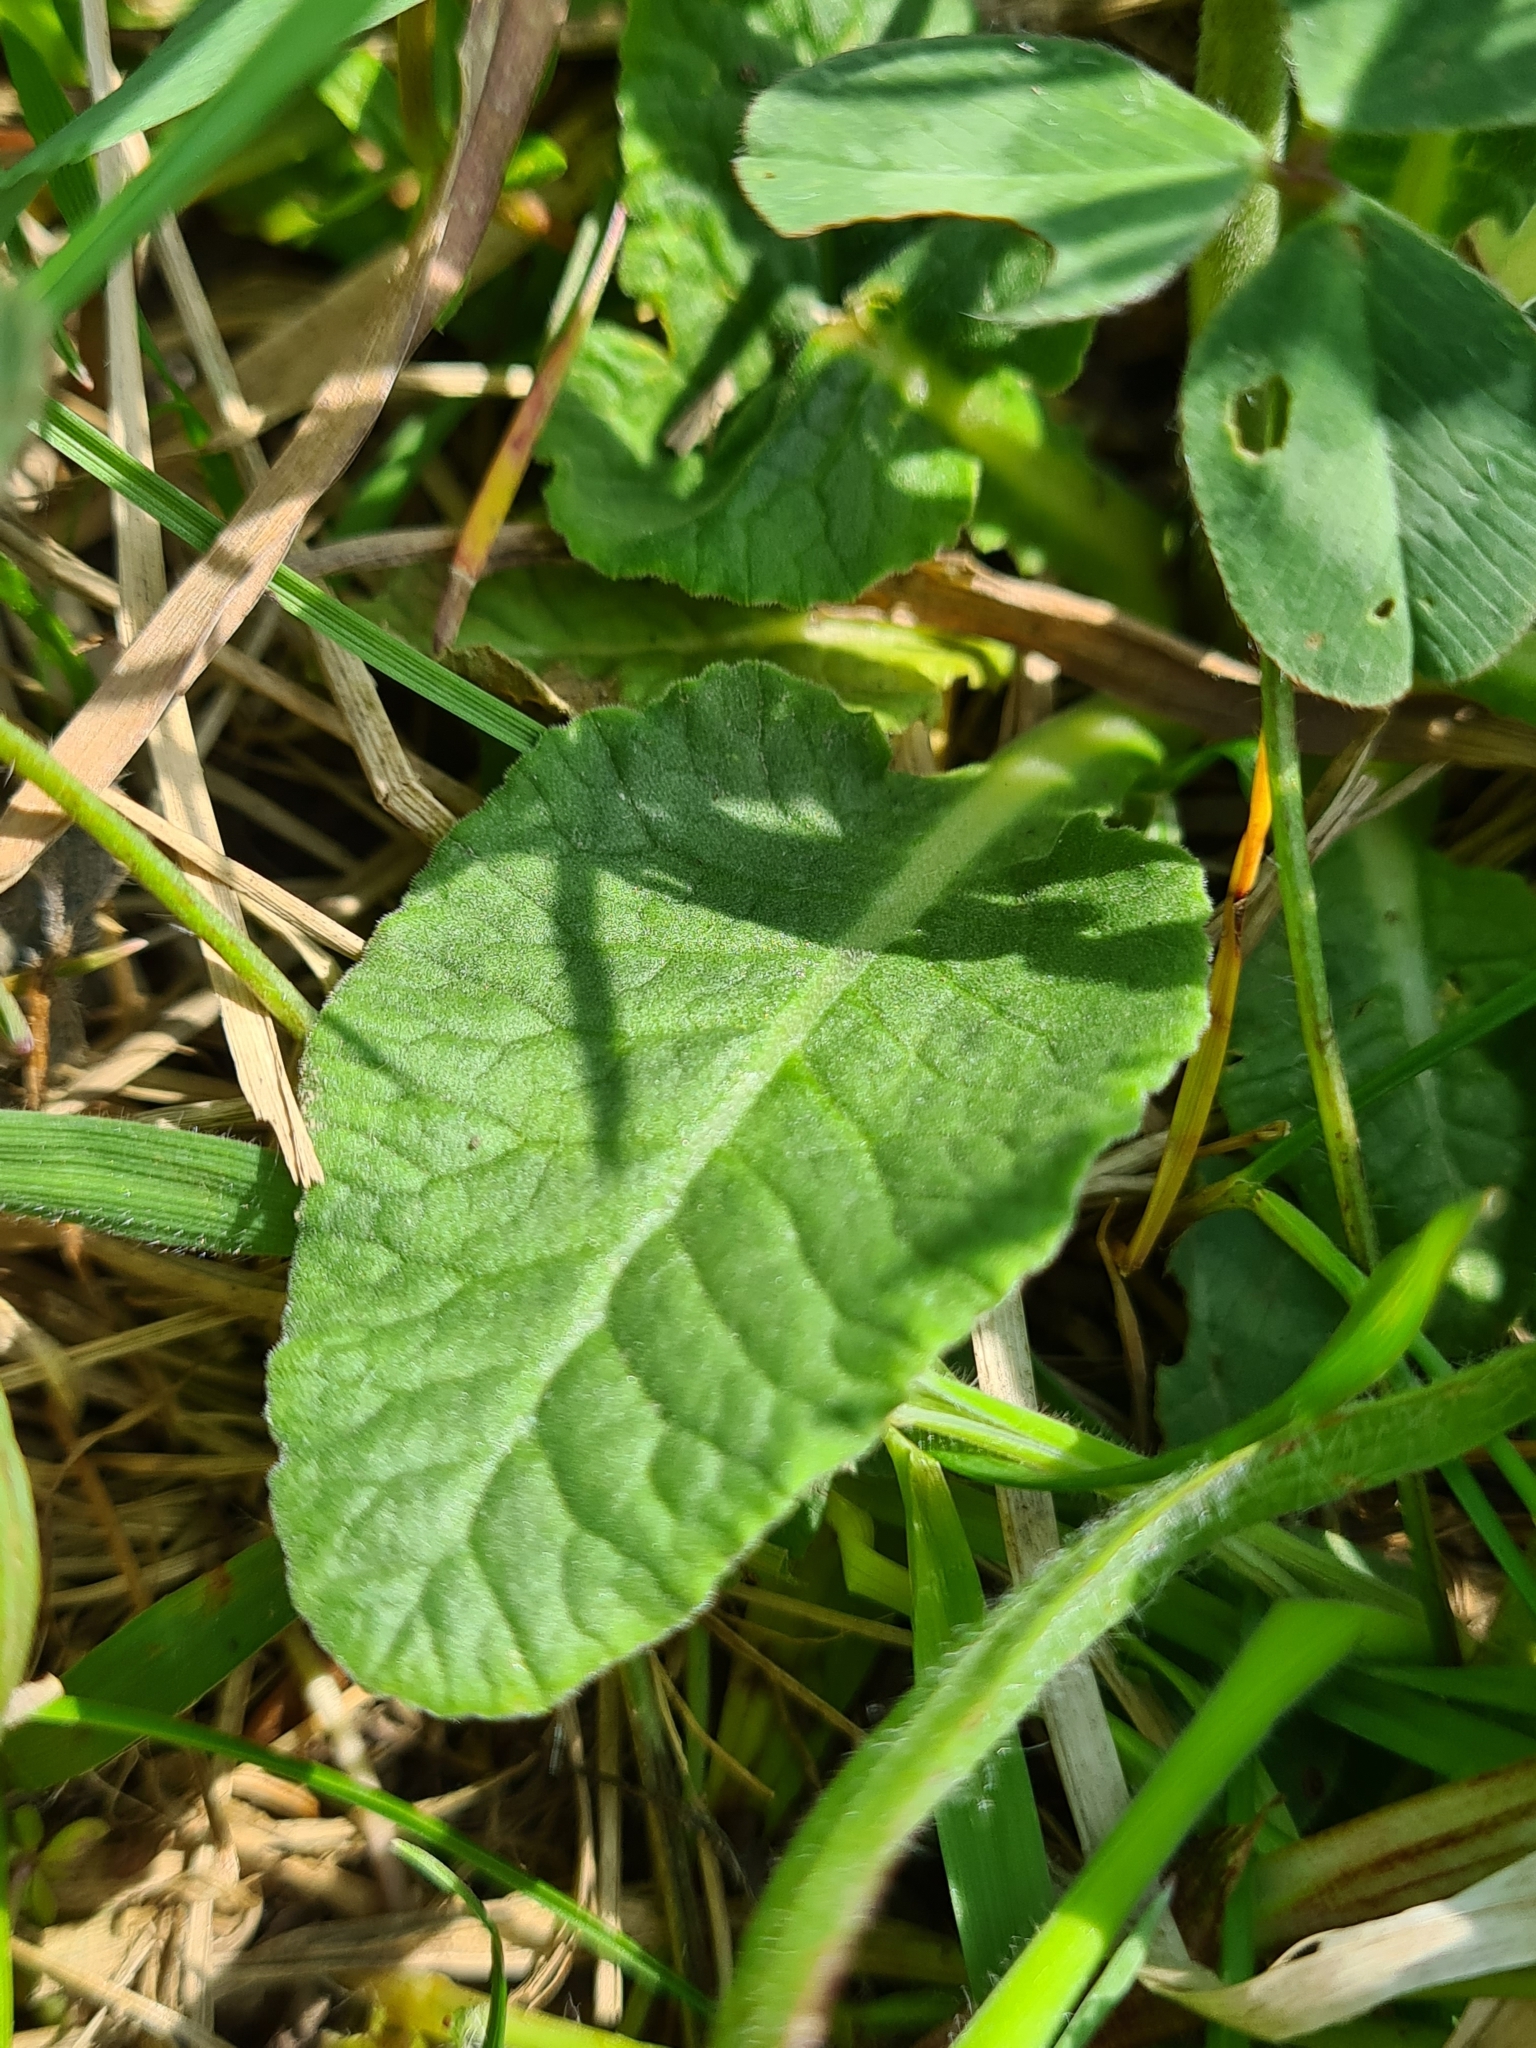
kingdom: Plantae
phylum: Tracheophyta
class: Magnoliopsida
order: Ericales
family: Primulaceae
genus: Primula
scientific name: Primula veris
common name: Cowslip
